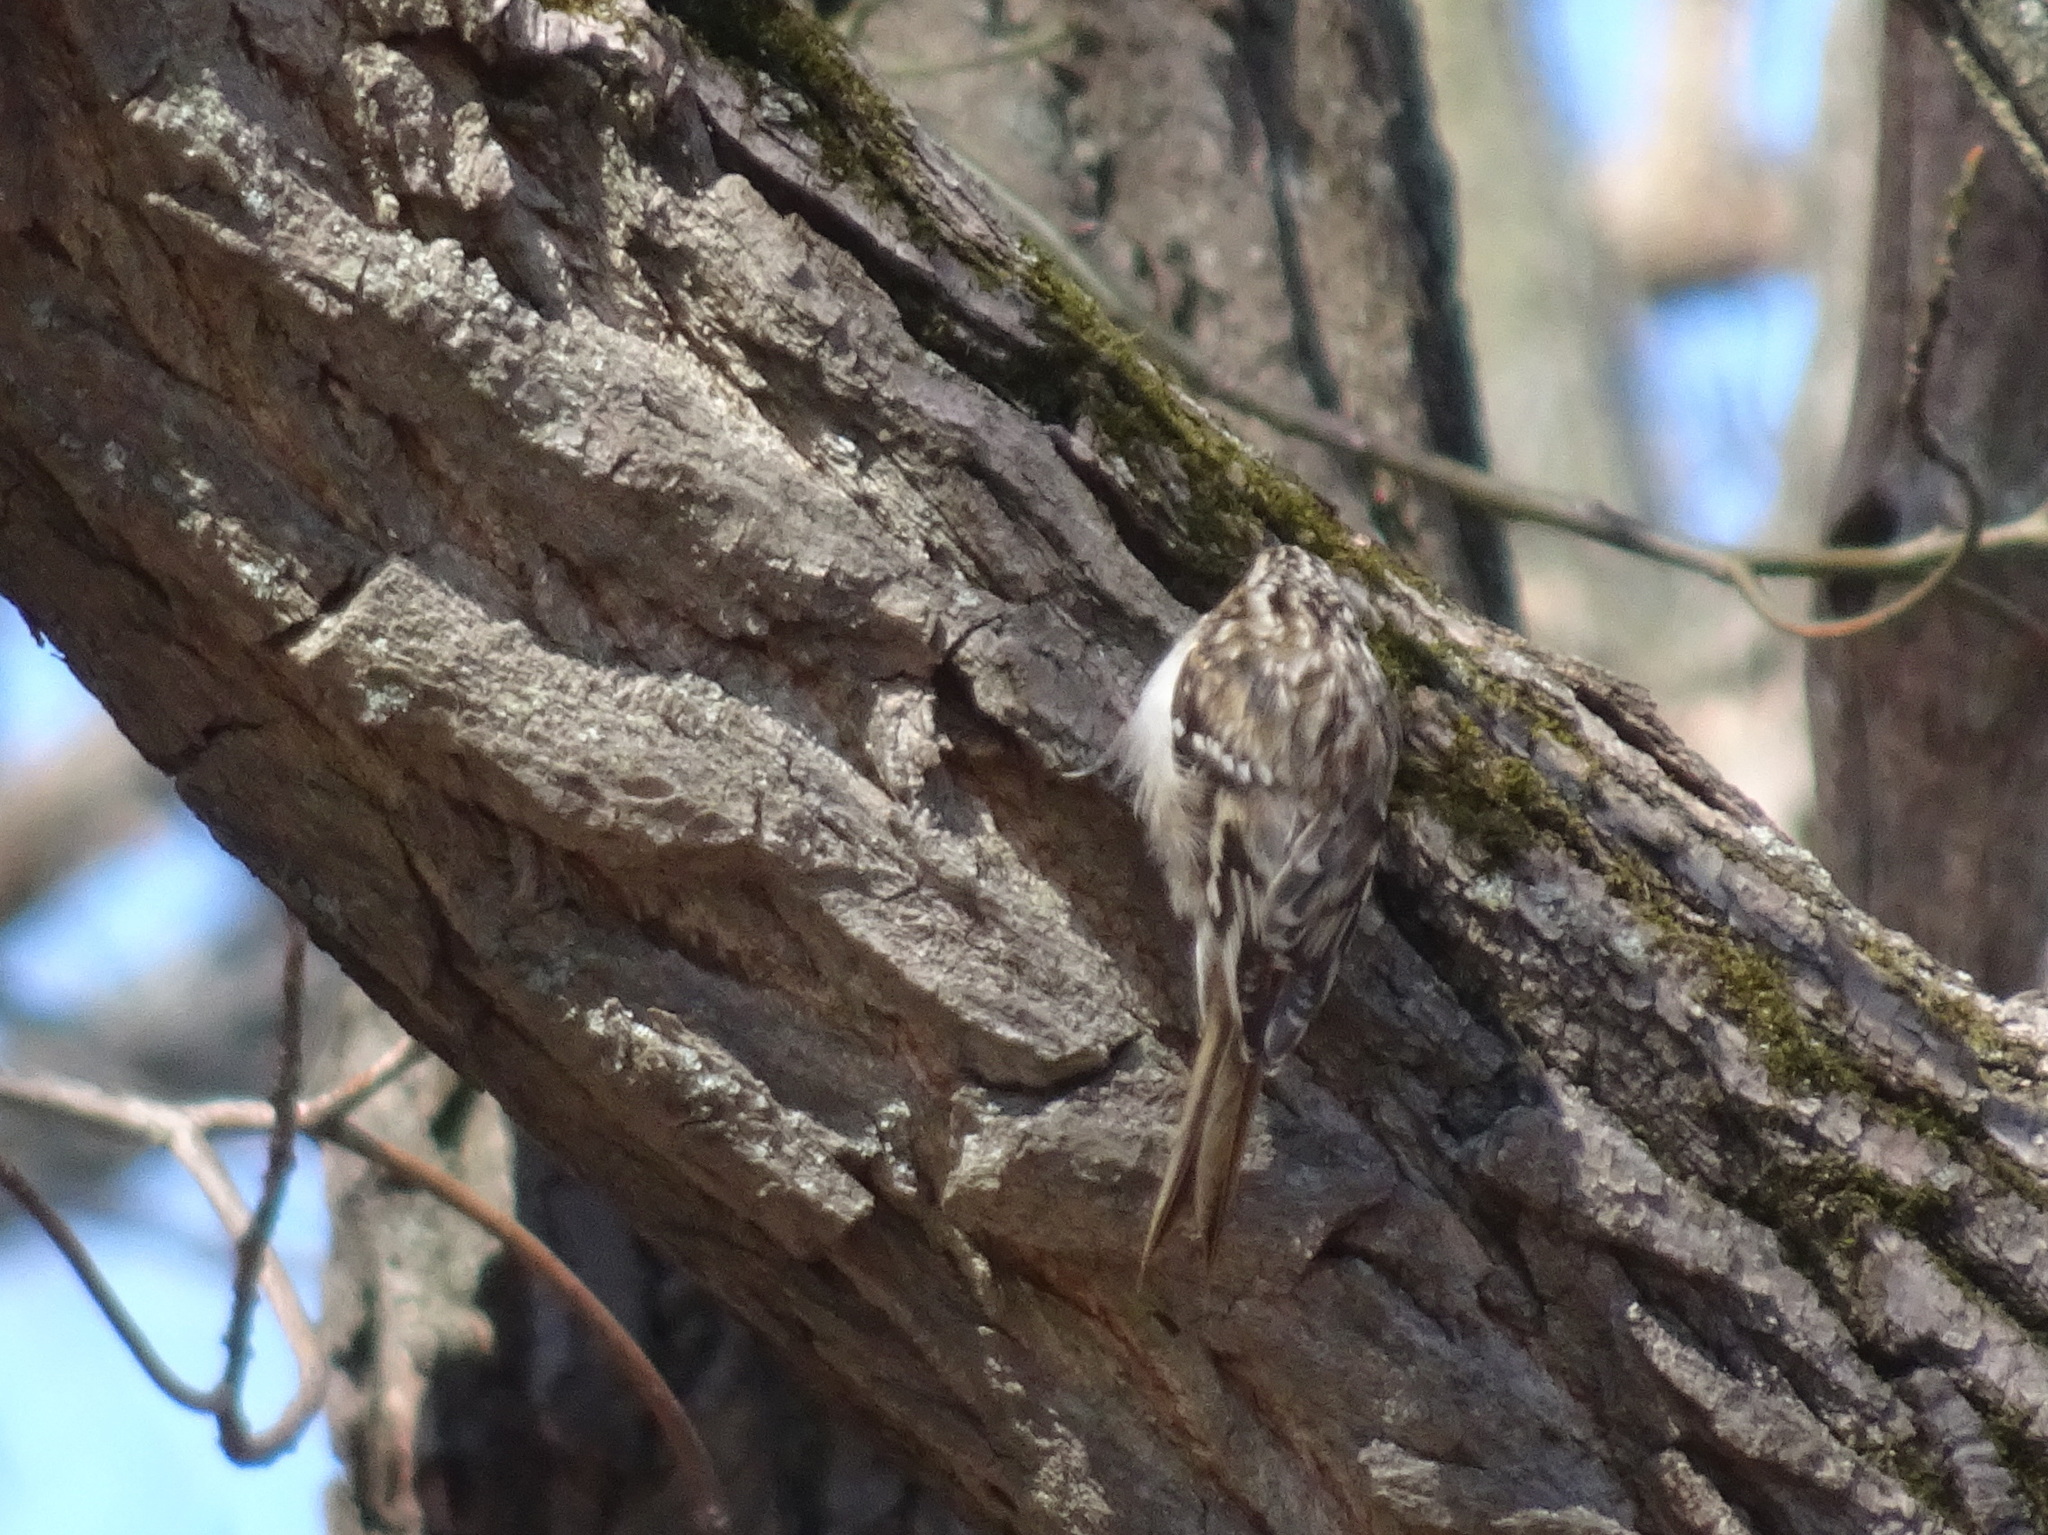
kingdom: Animalia
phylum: Chordata
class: Aves
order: Passeriformes
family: Certhiidae
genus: Certhia
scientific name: Certhia americana
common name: Brown creeper
